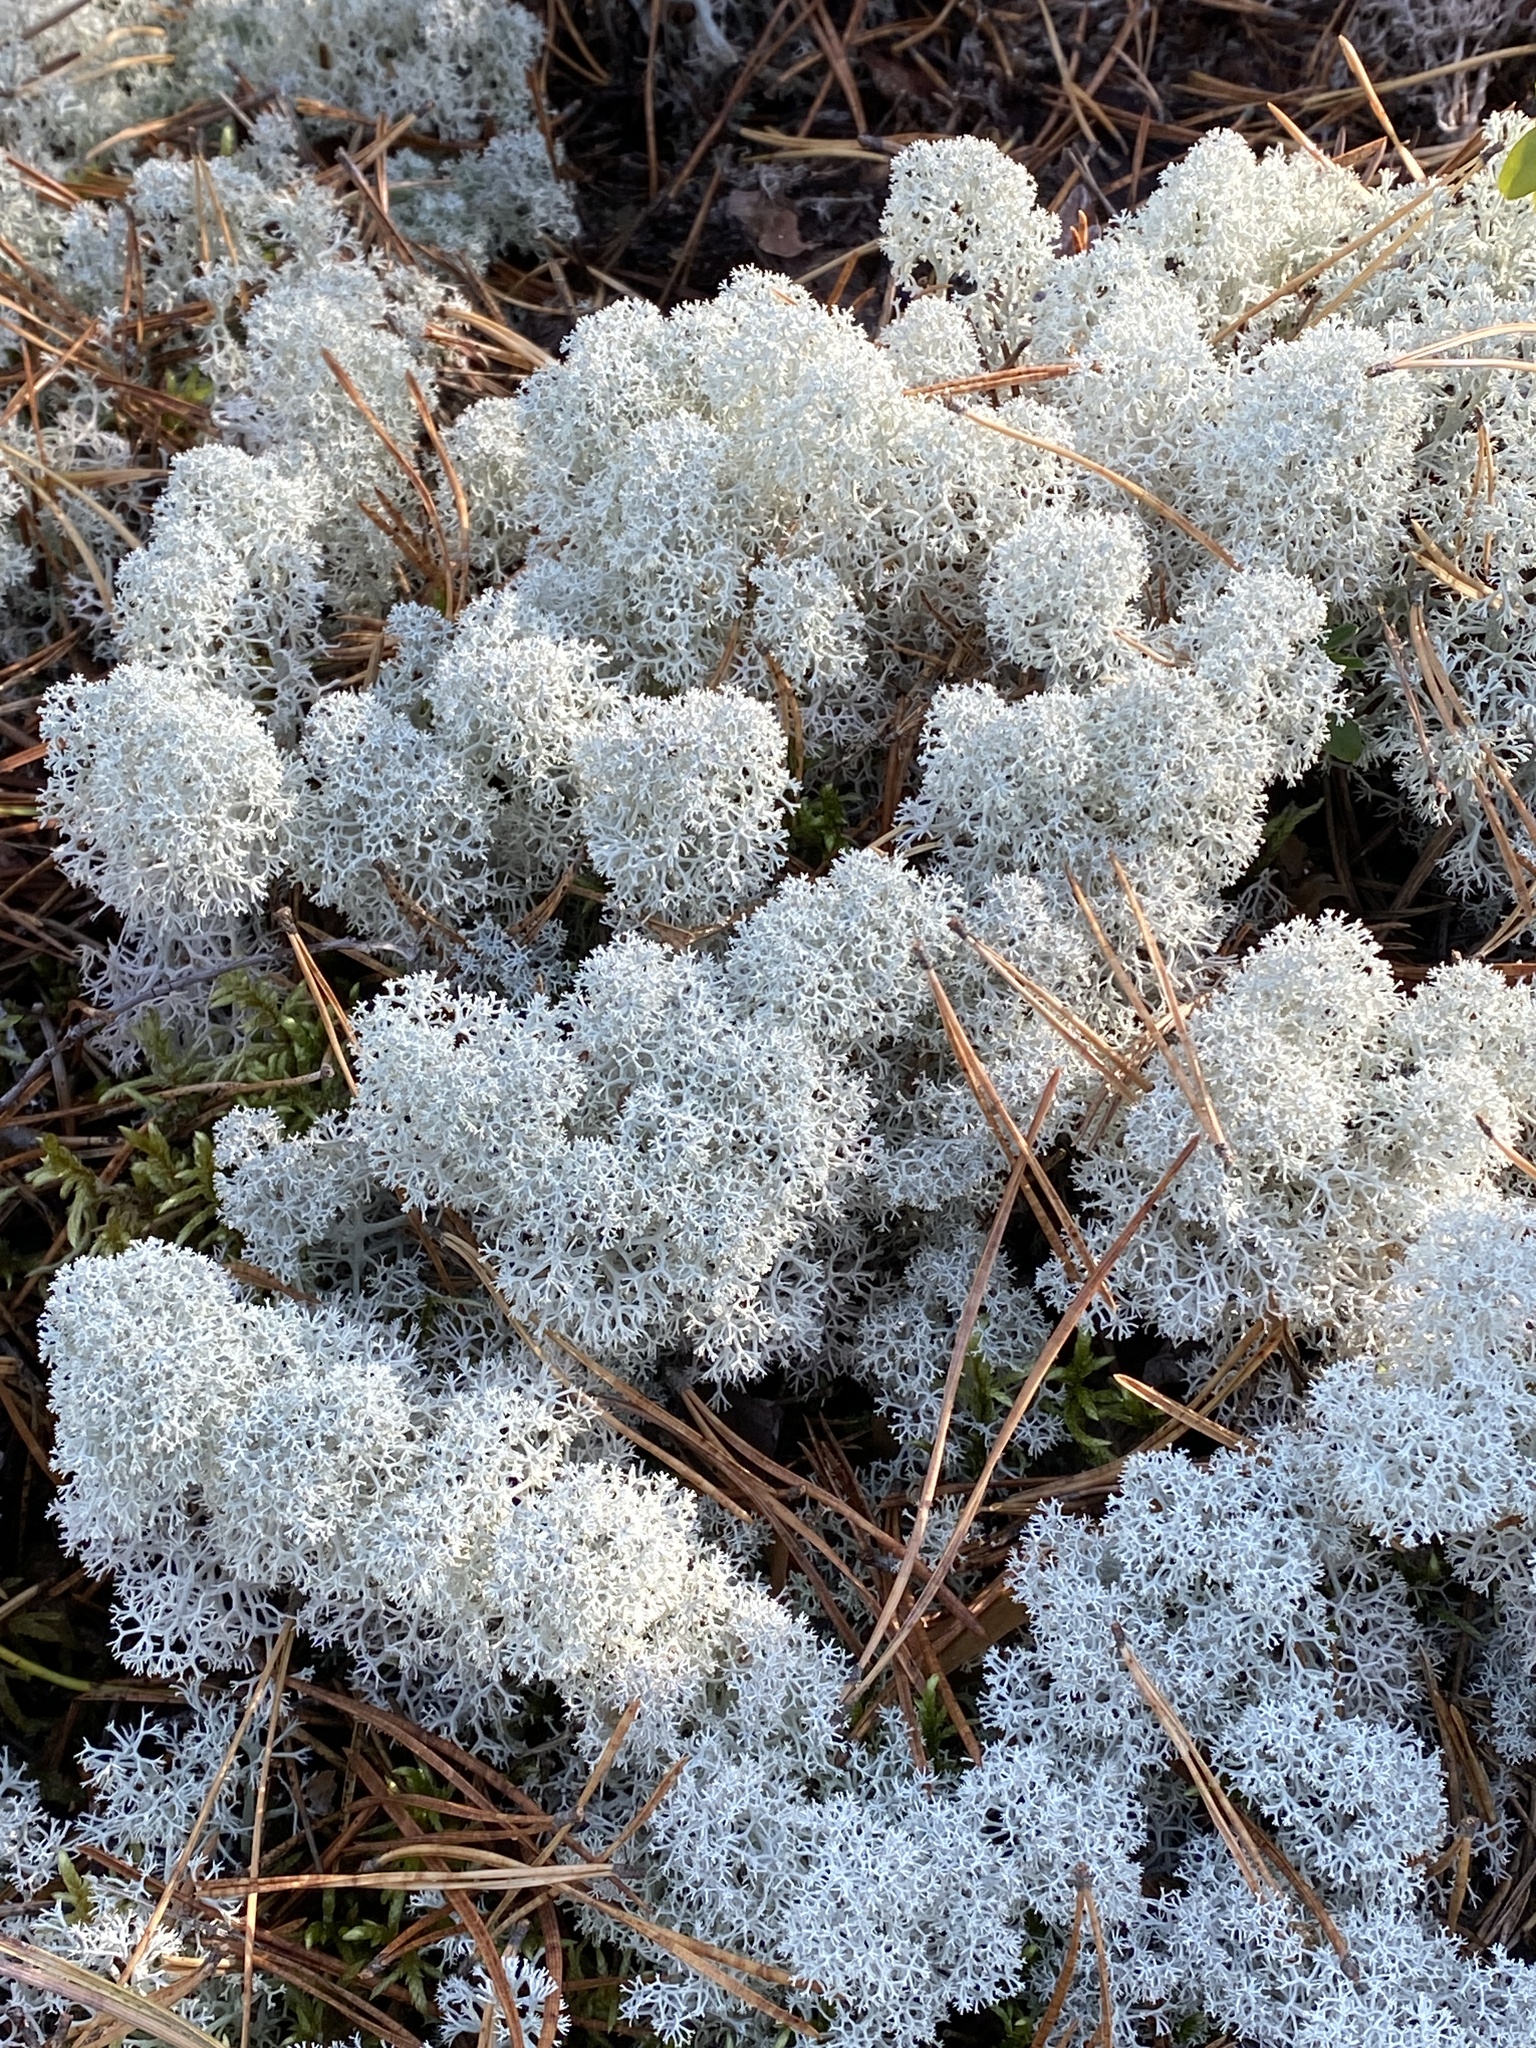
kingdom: Fungi
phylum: Ascomycota
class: Lecanoromycetes
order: Lecanorales
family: Cladoniaceae
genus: Cladonia
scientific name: Cladonia stellaris
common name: Star-tipped reindeer lichen
